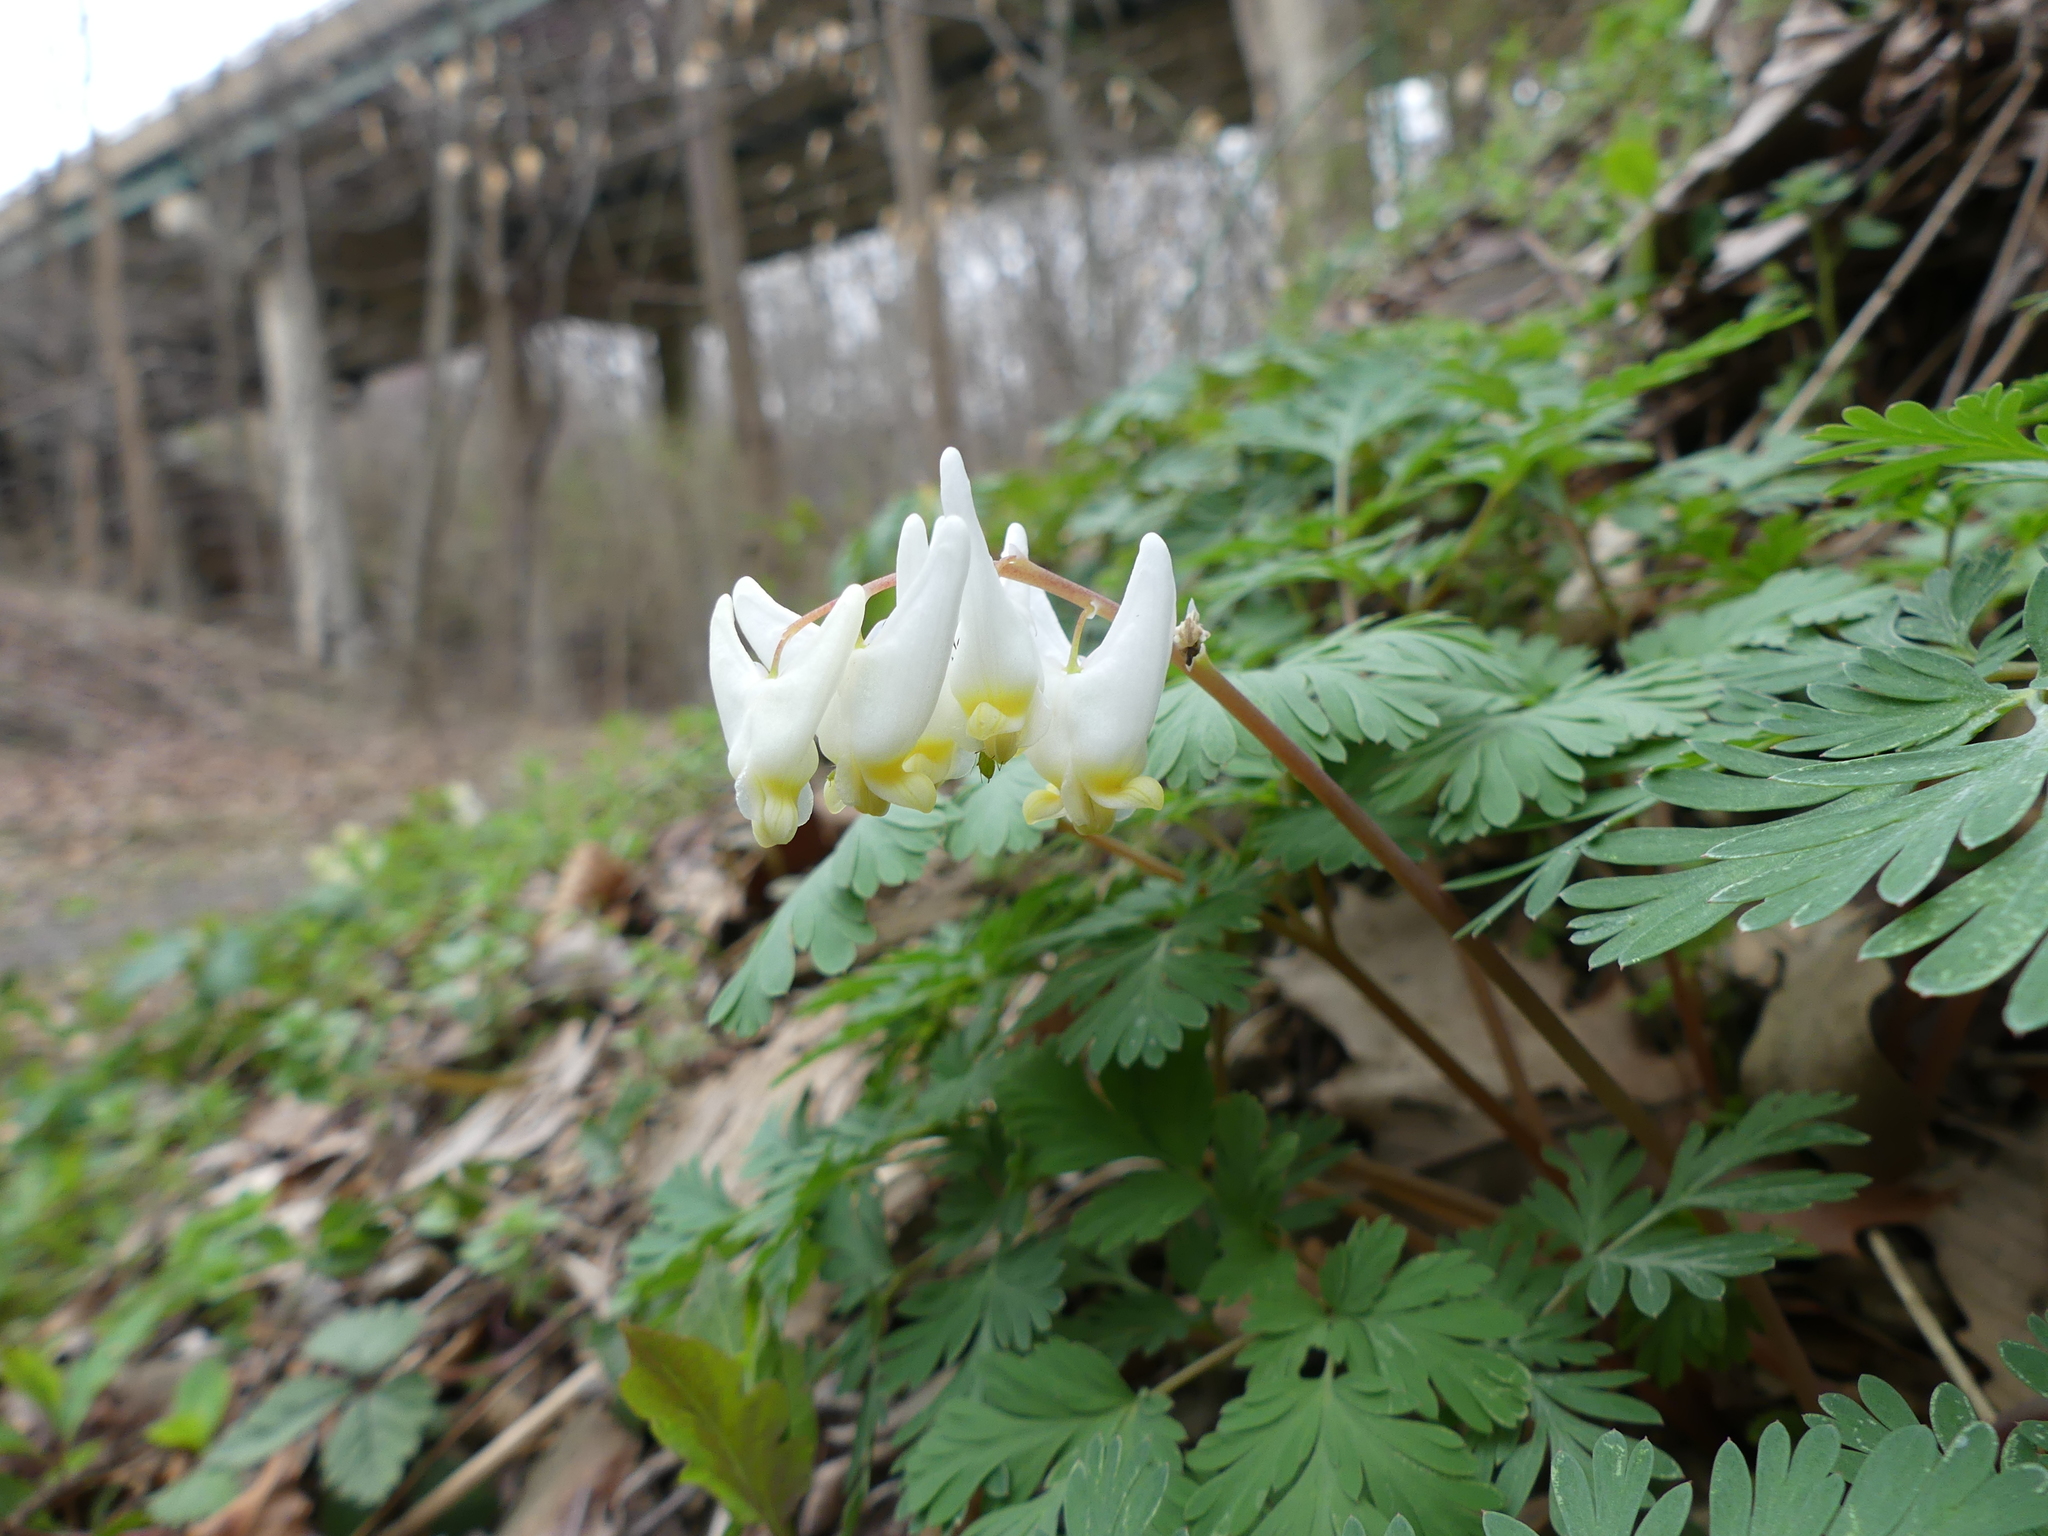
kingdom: Plantae
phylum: Tracheophyta
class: Magnoliopsida
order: Ranunculales
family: Papaveraceae
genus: Dicentra
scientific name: Dicentra cucullaria
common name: Dutchman's breeches
